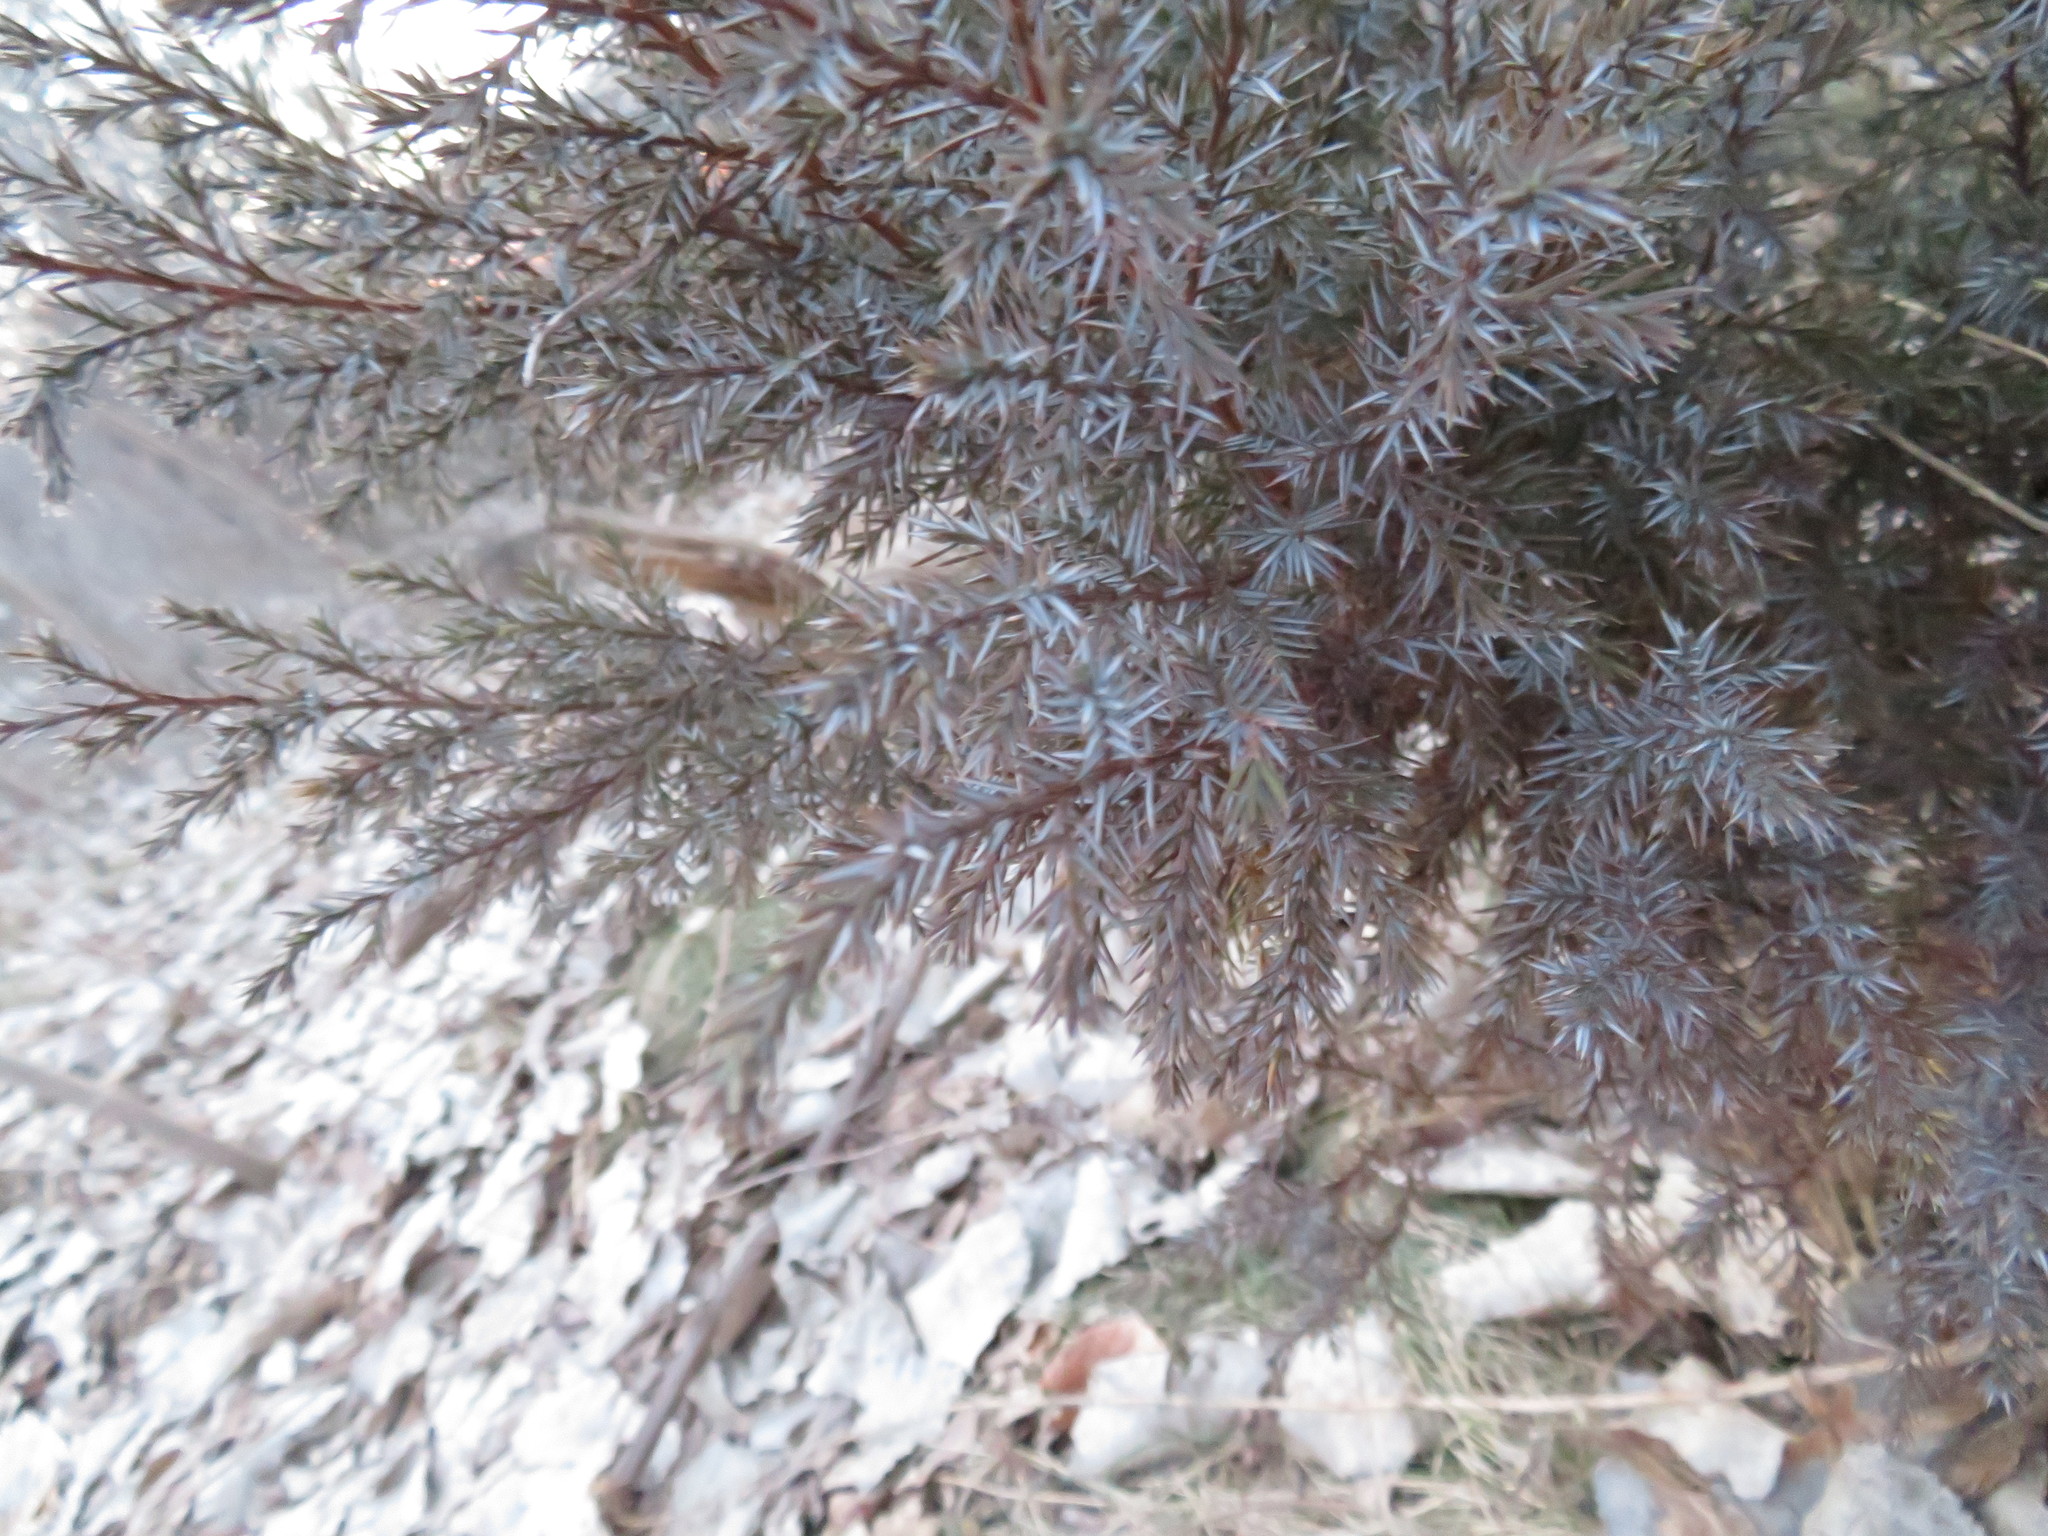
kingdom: Plantae
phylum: Tracheophyta
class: Pinopsida
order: Pinales
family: Cupressaceae
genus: Juniperus
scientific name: Juniperus virginiana
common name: Red juniper
